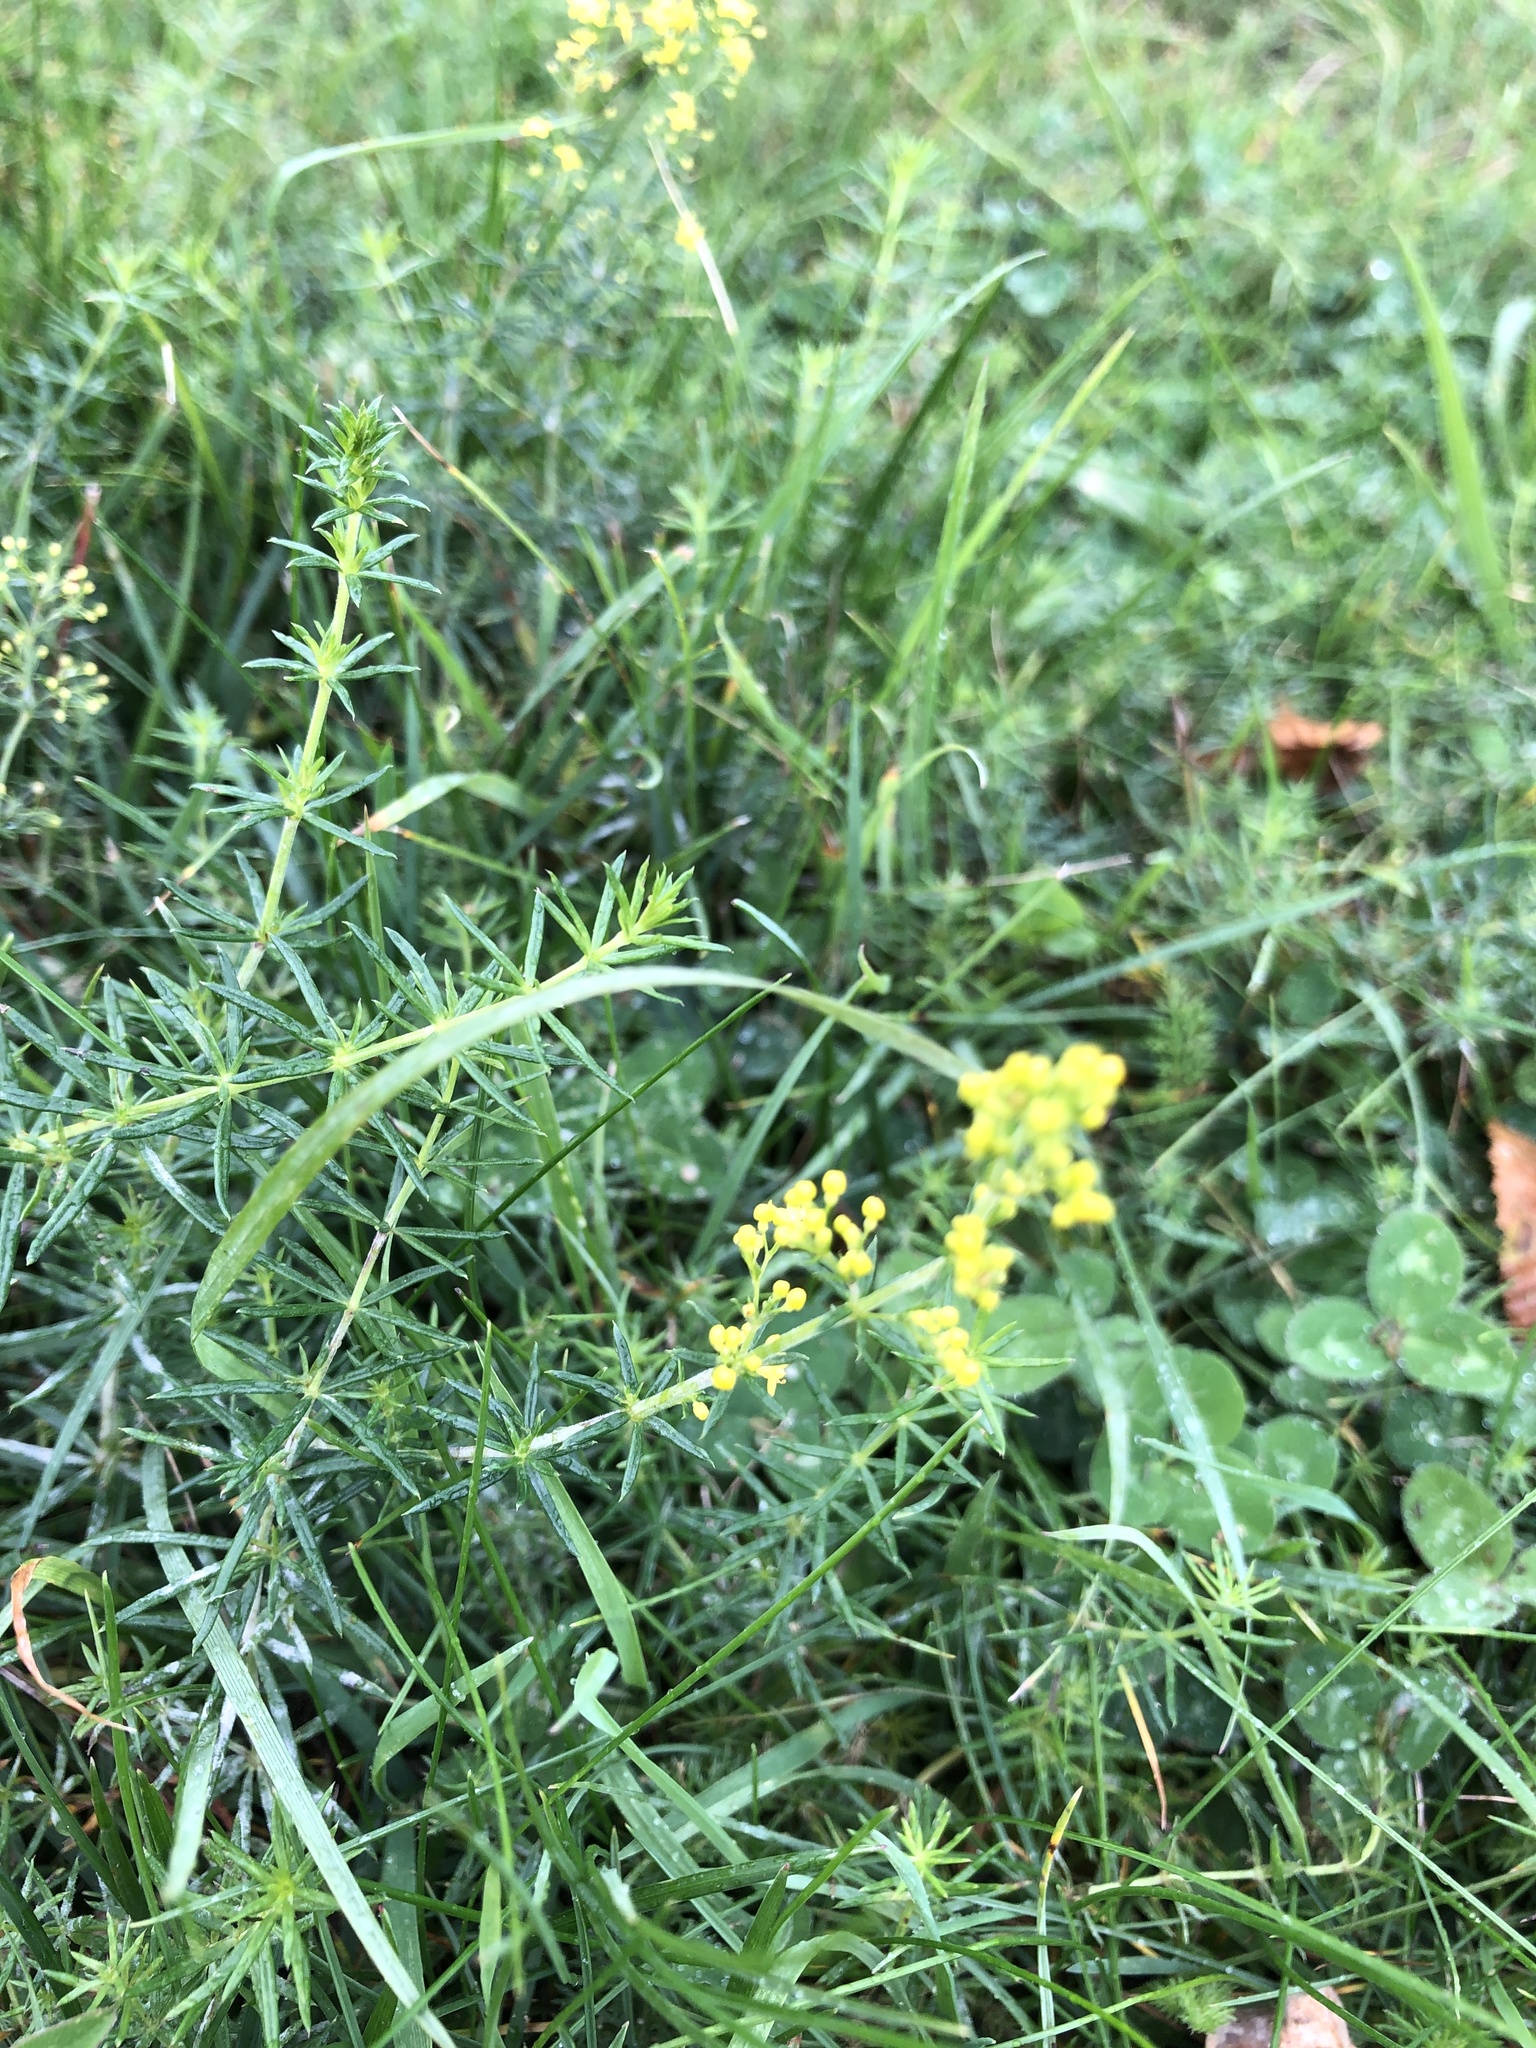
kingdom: Plantae
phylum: Tracheophyta
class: Magnoliopsida
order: Gentianales
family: Rubiaceae
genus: Galium
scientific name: Galium verum
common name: Lady's bedstraw
